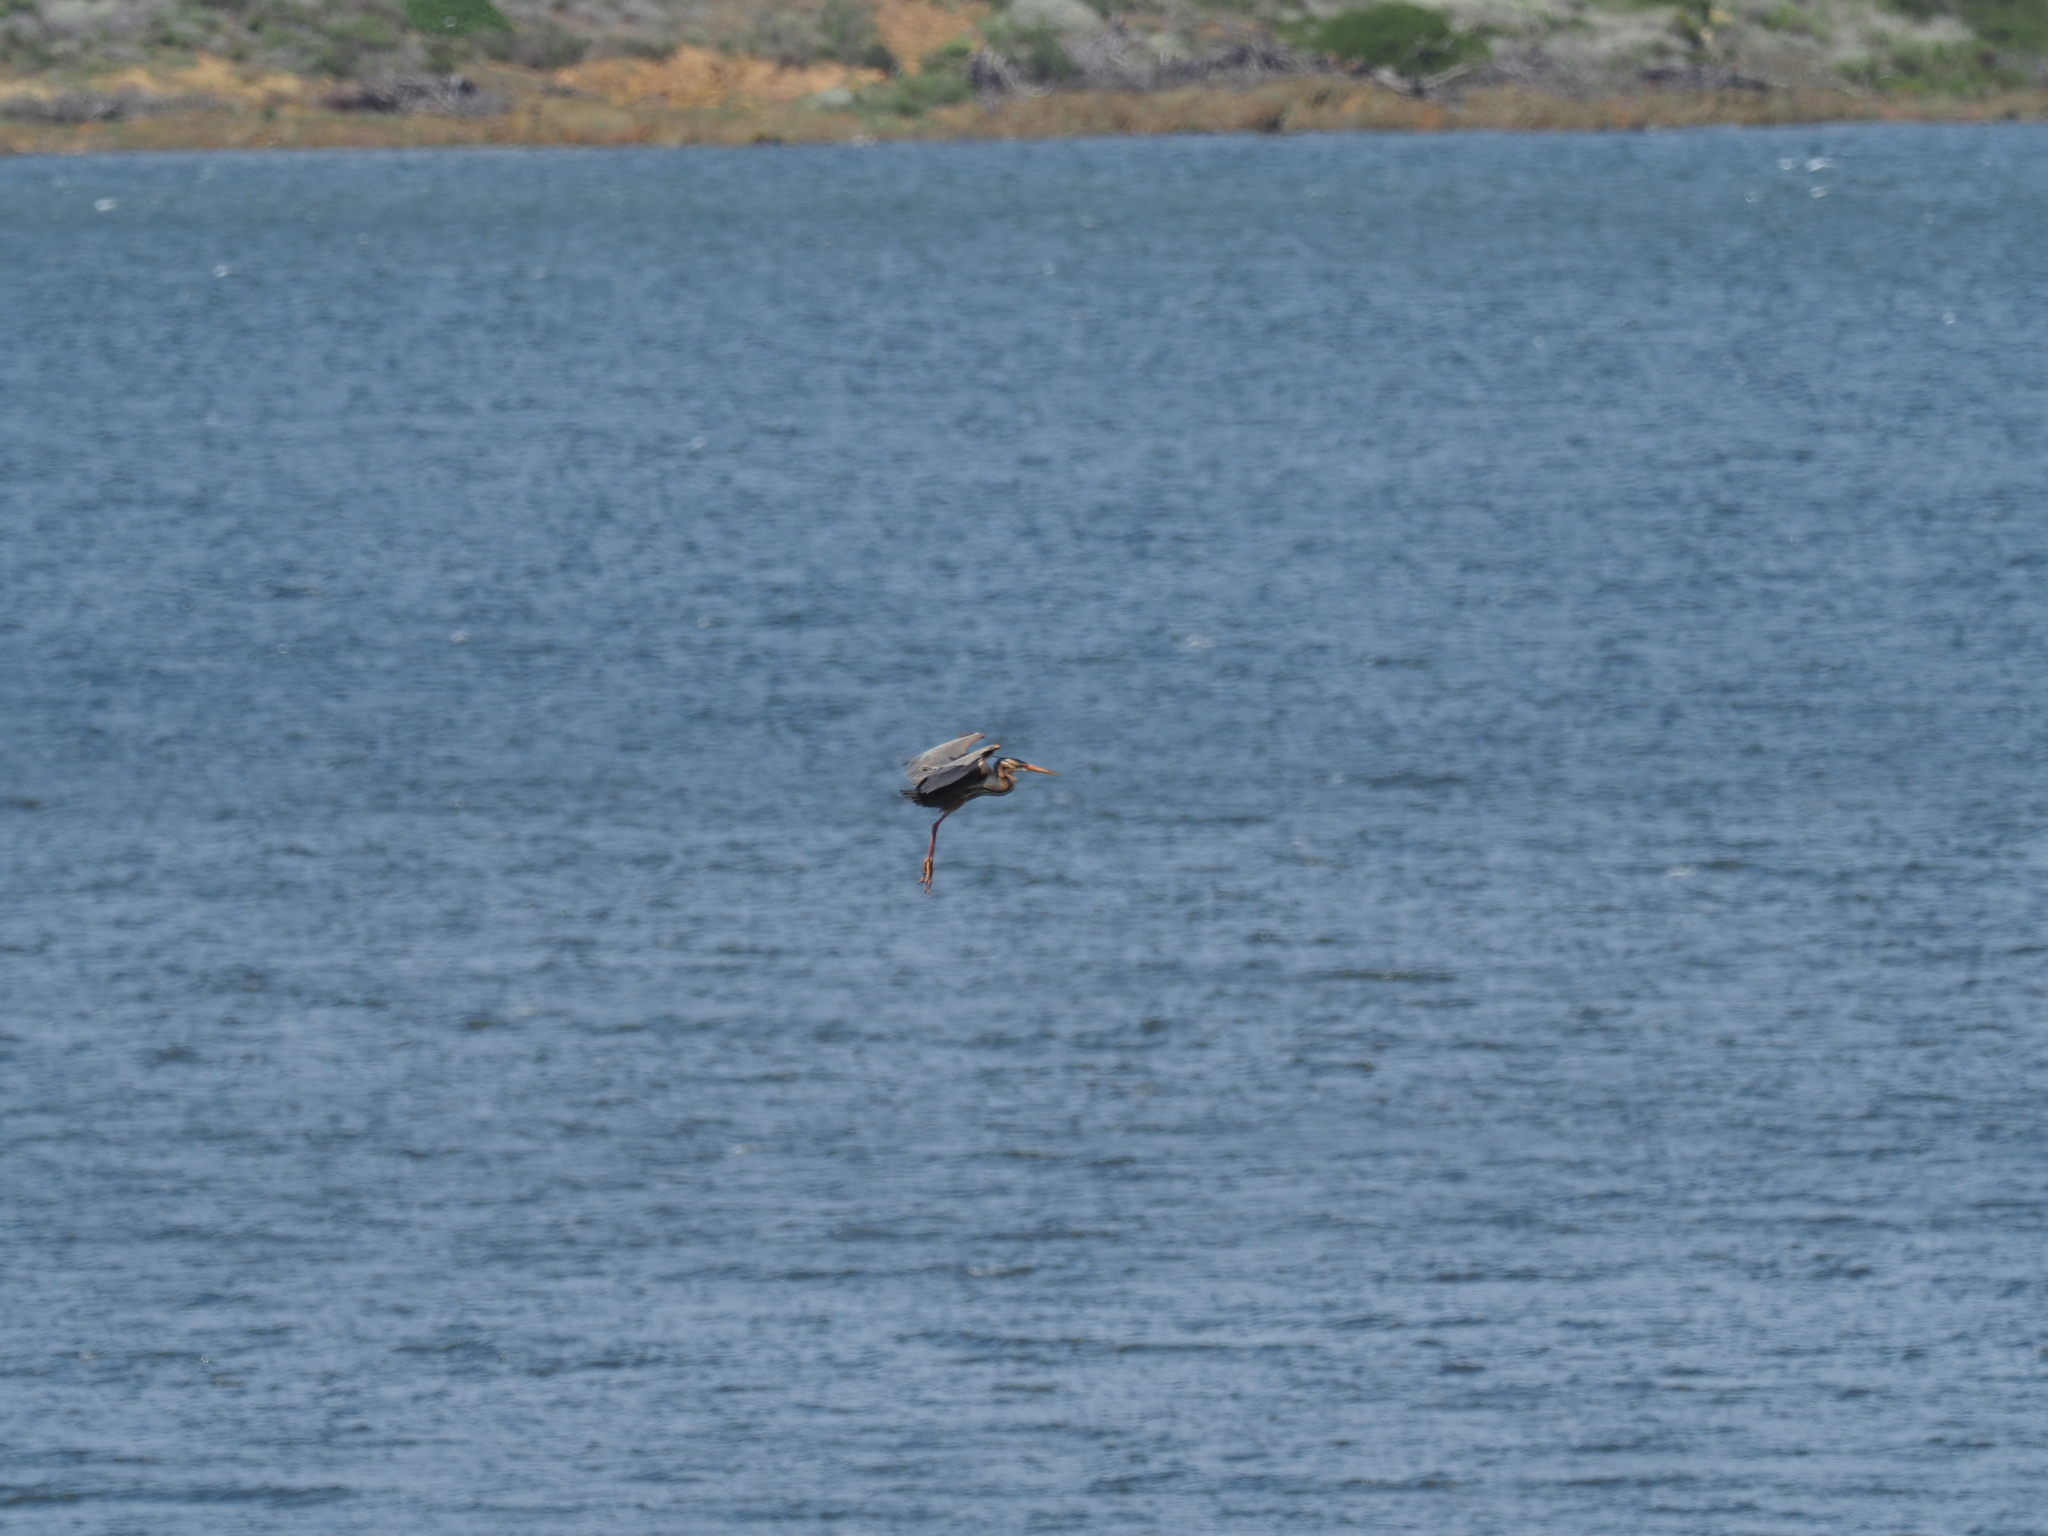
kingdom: Animalia
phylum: Chordata
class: Aves
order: Pelecaniformes
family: Ardeidae
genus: Ardea
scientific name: Ardea purpurea
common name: Purple heron
